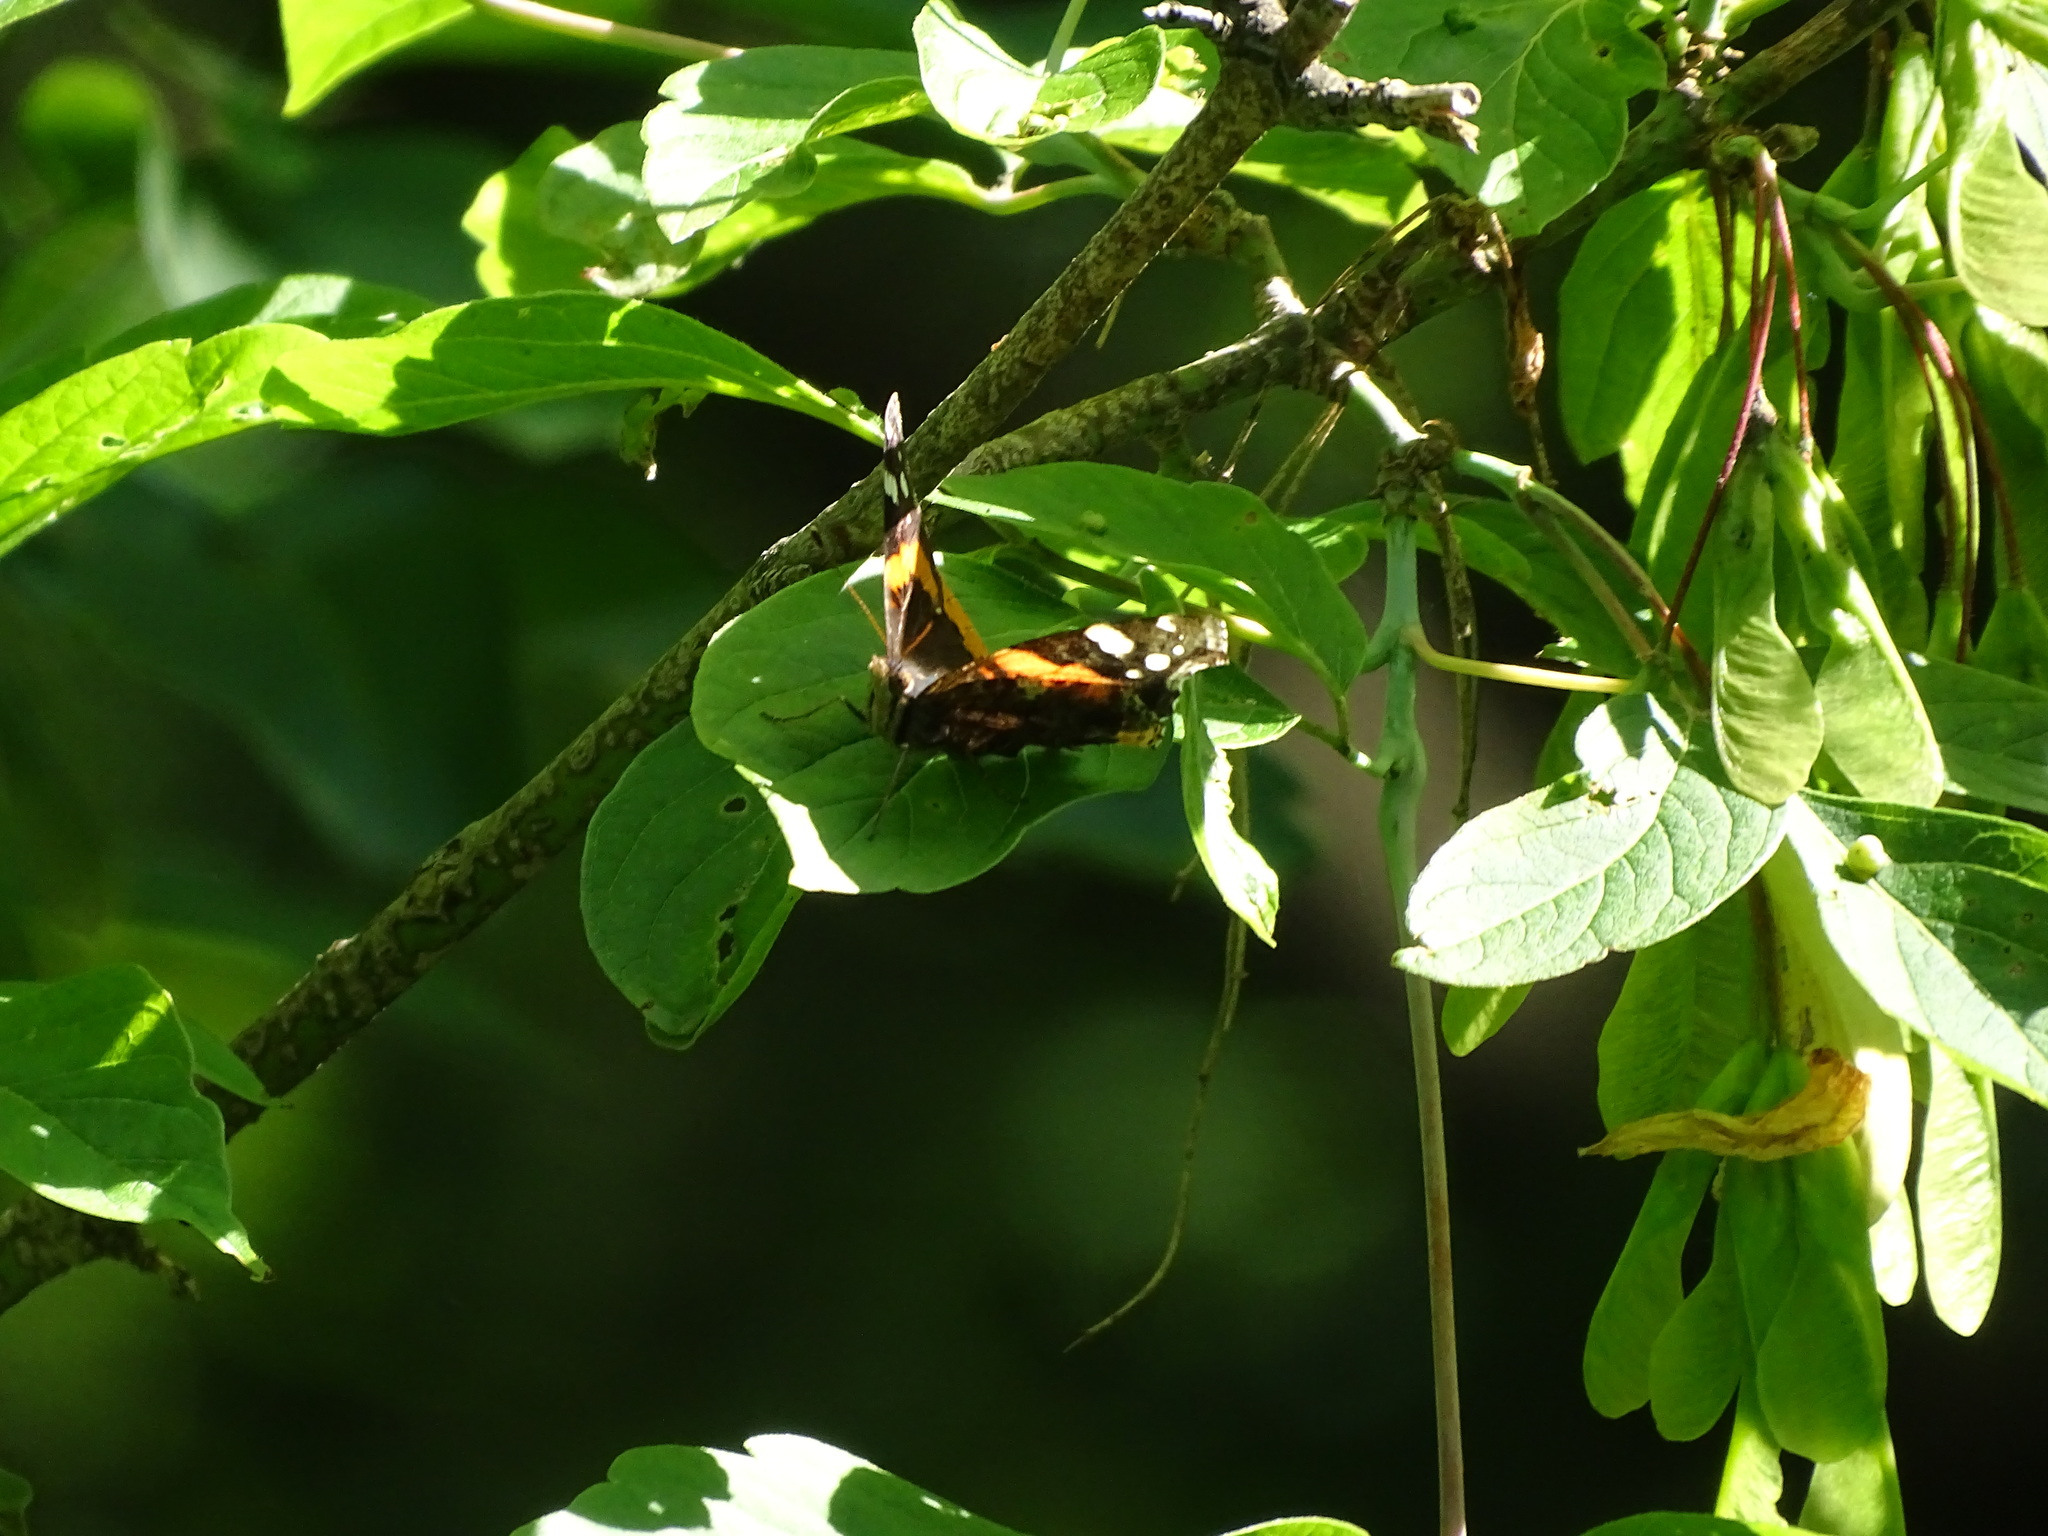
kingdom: Animalia
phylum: Arthropoda
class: Insecta
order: Lepidoptera
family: Nymphalidae
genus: Vanessa
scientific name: Vanessa atalanta
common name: Red admiral
